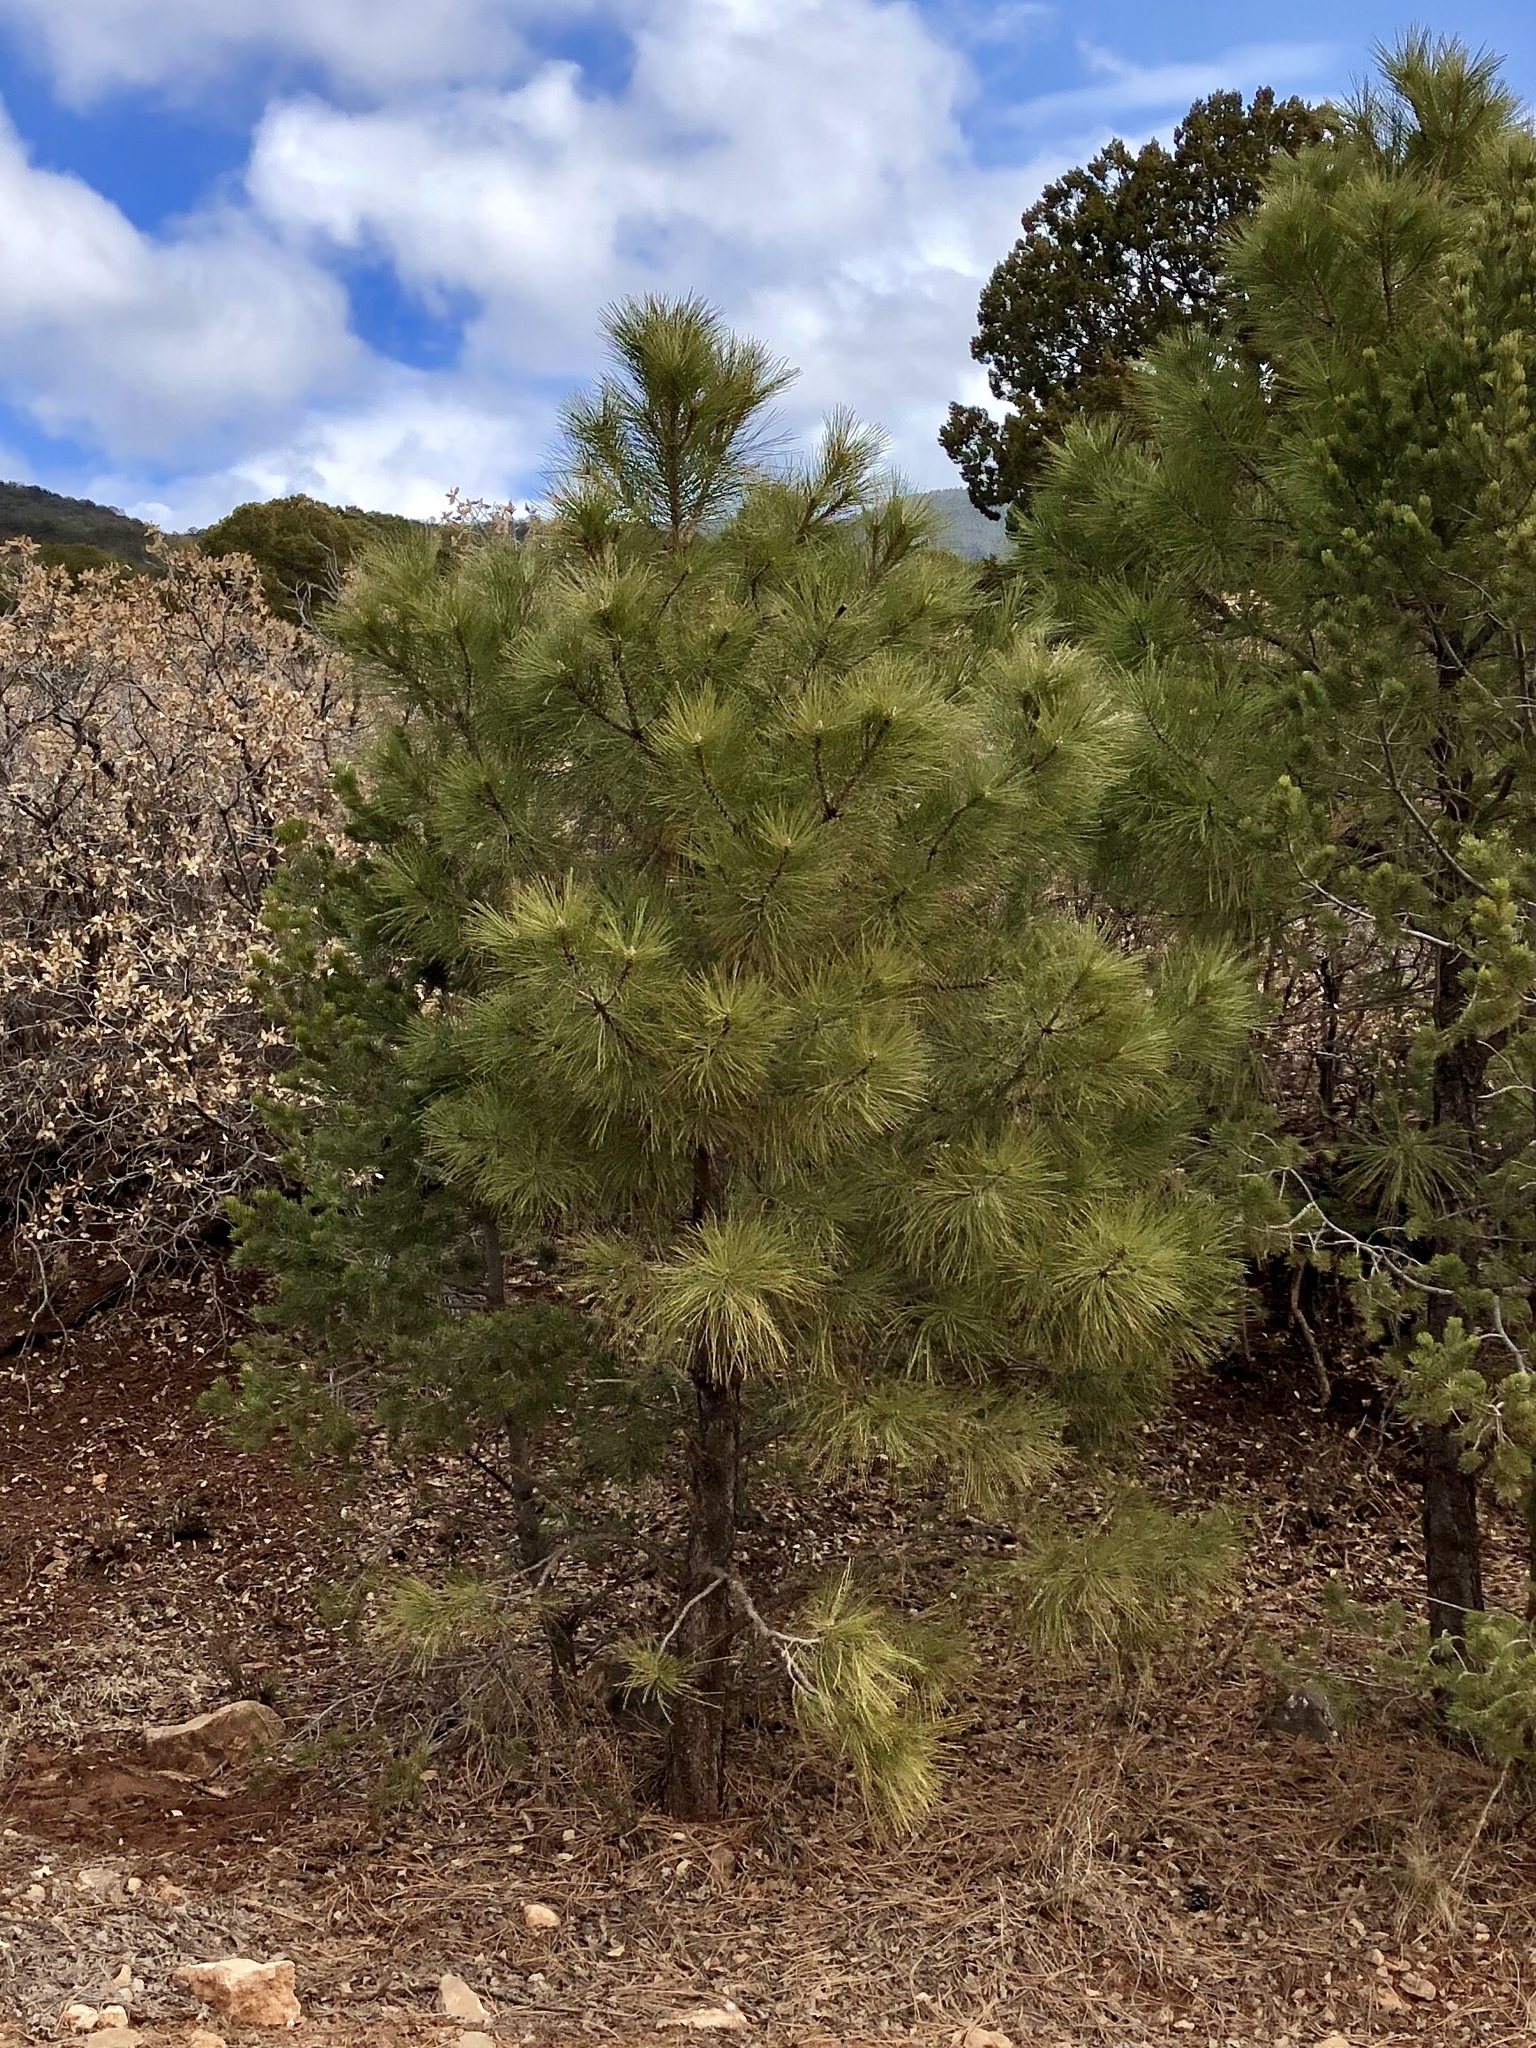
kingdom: Plantae
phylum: Tracheophyta
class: Pinopsida
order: Pinales
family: Pinaceae
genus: Pinus
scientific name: Pinus ponderosa
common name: Western yellow-pine
